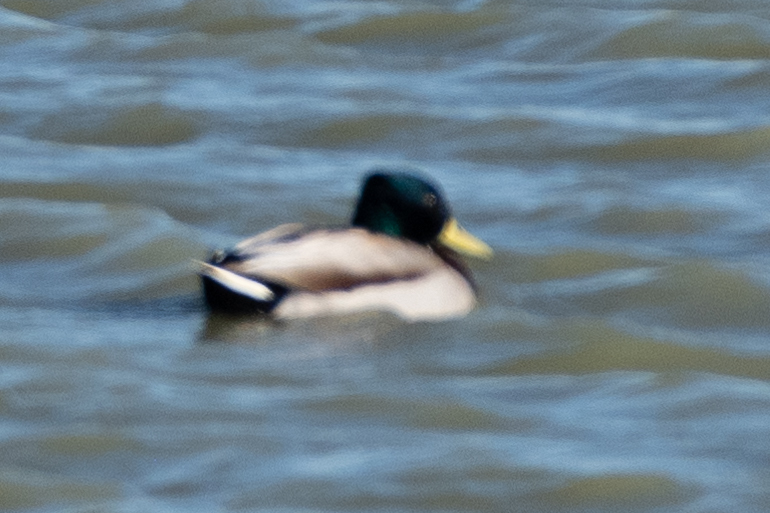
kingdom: Animalia
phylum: Chordata
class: Aves
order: Anseriformes
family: Anatidae
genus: Anas
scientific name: Anas platyrhynchos
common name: Mallard
